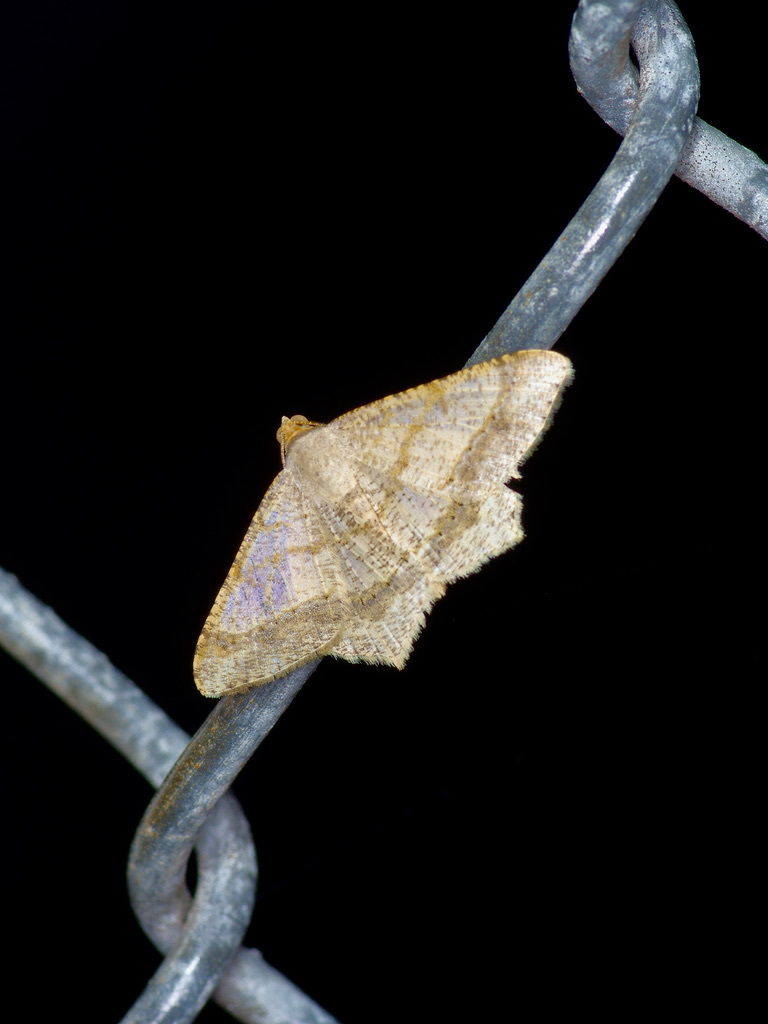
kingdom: Animalia
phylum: Arthropoda
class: Insecta
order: Lepidoptera
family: Geometridae
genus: Macaria
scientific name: Macaria abydata
